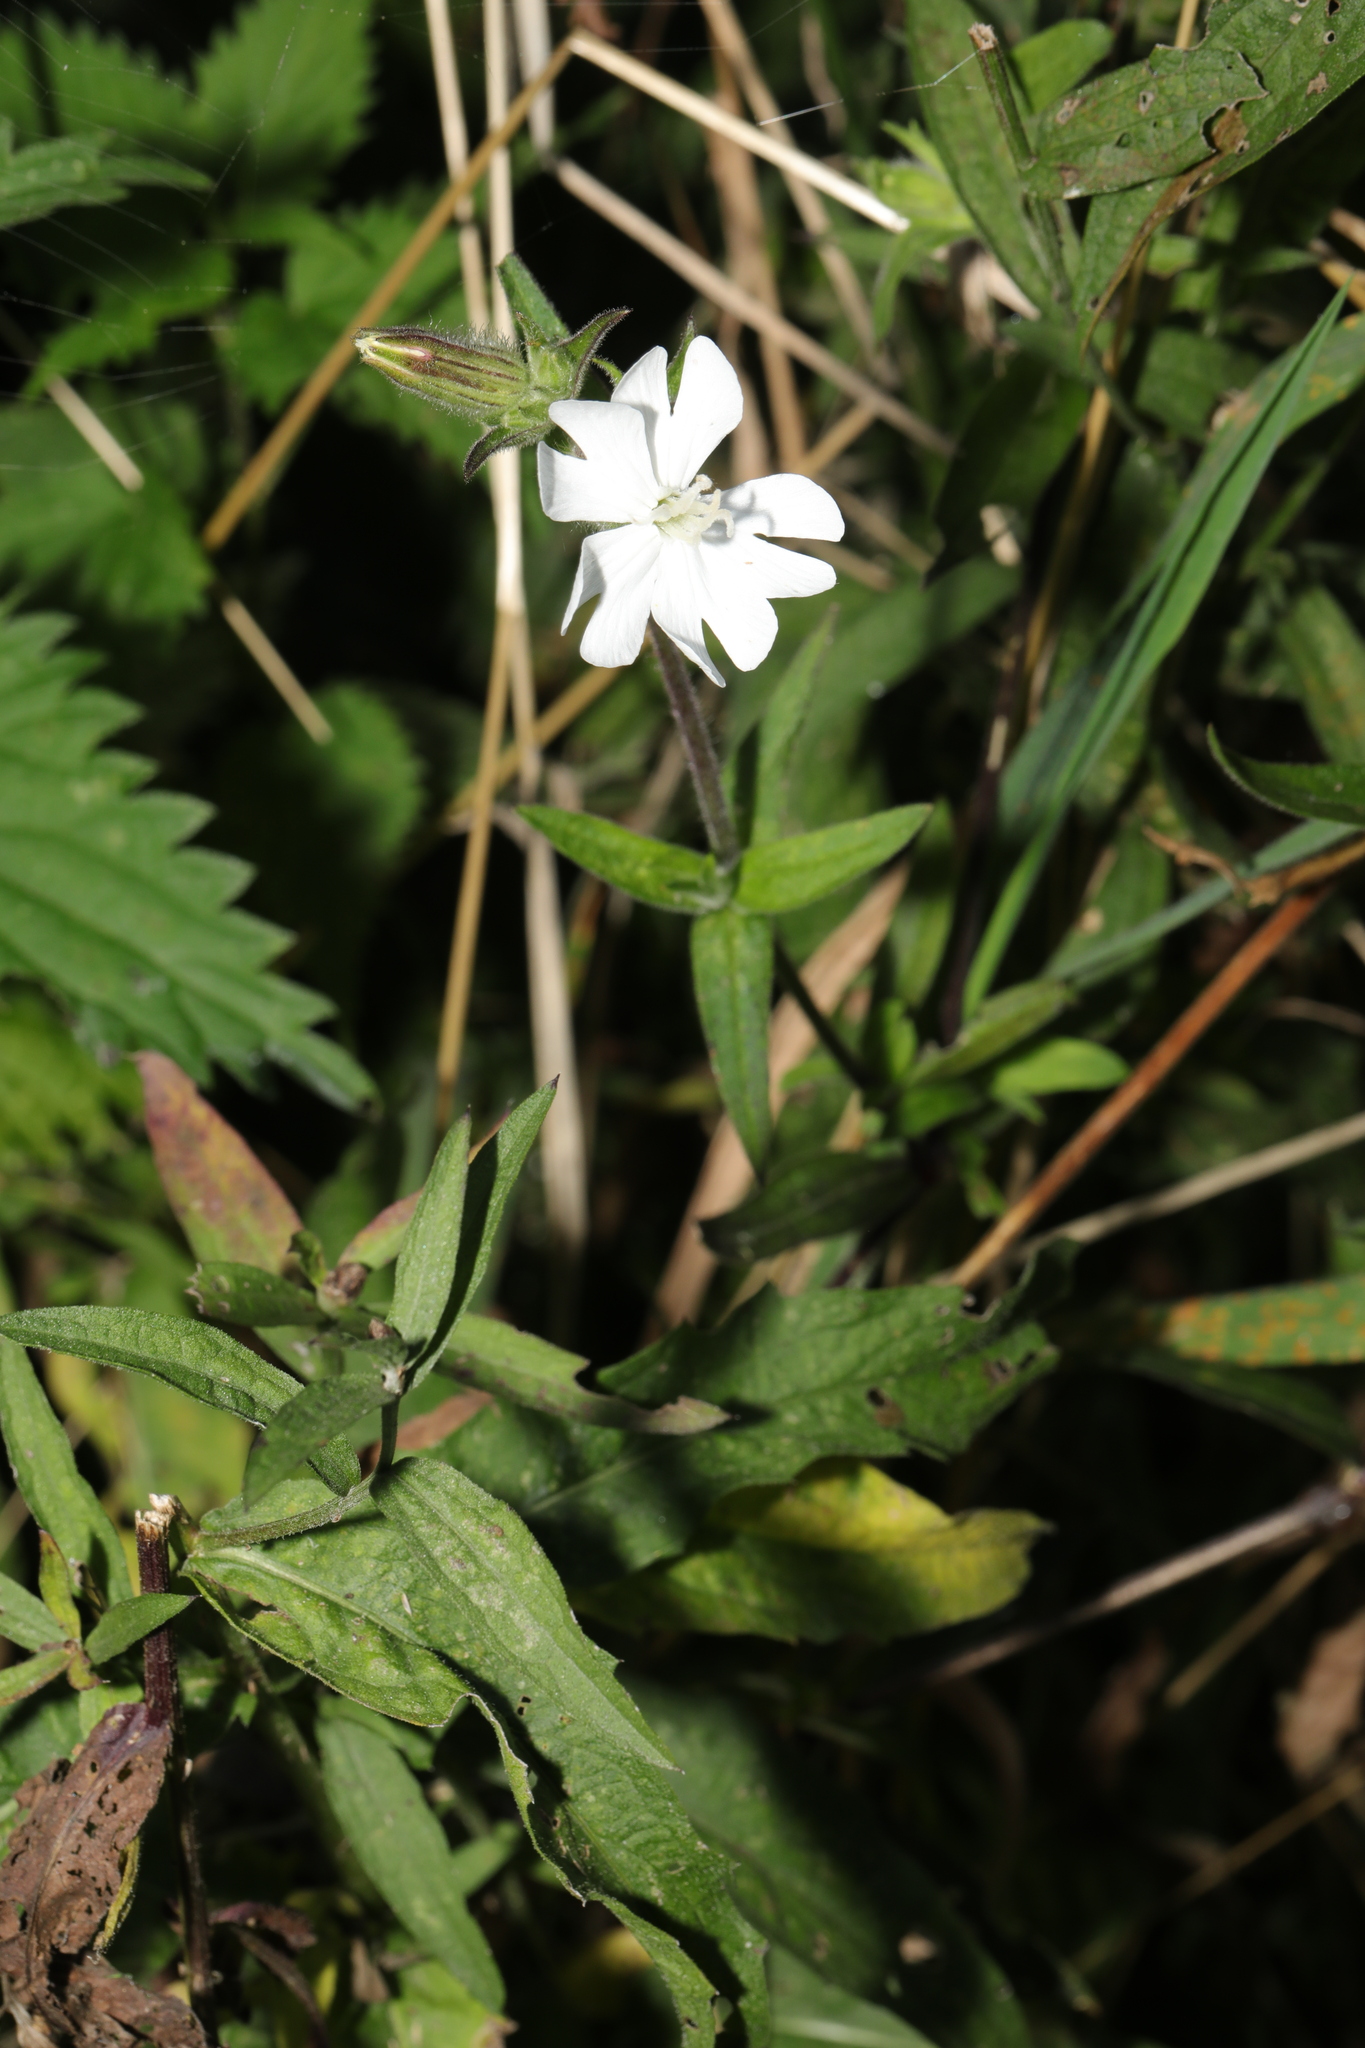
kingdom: Plantae
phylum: Tracheophyta
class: Magnoliopsida
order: Caryophyllales
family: Caryophyllaceae
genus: Silene
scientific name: Silene latifolia
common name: White campion
